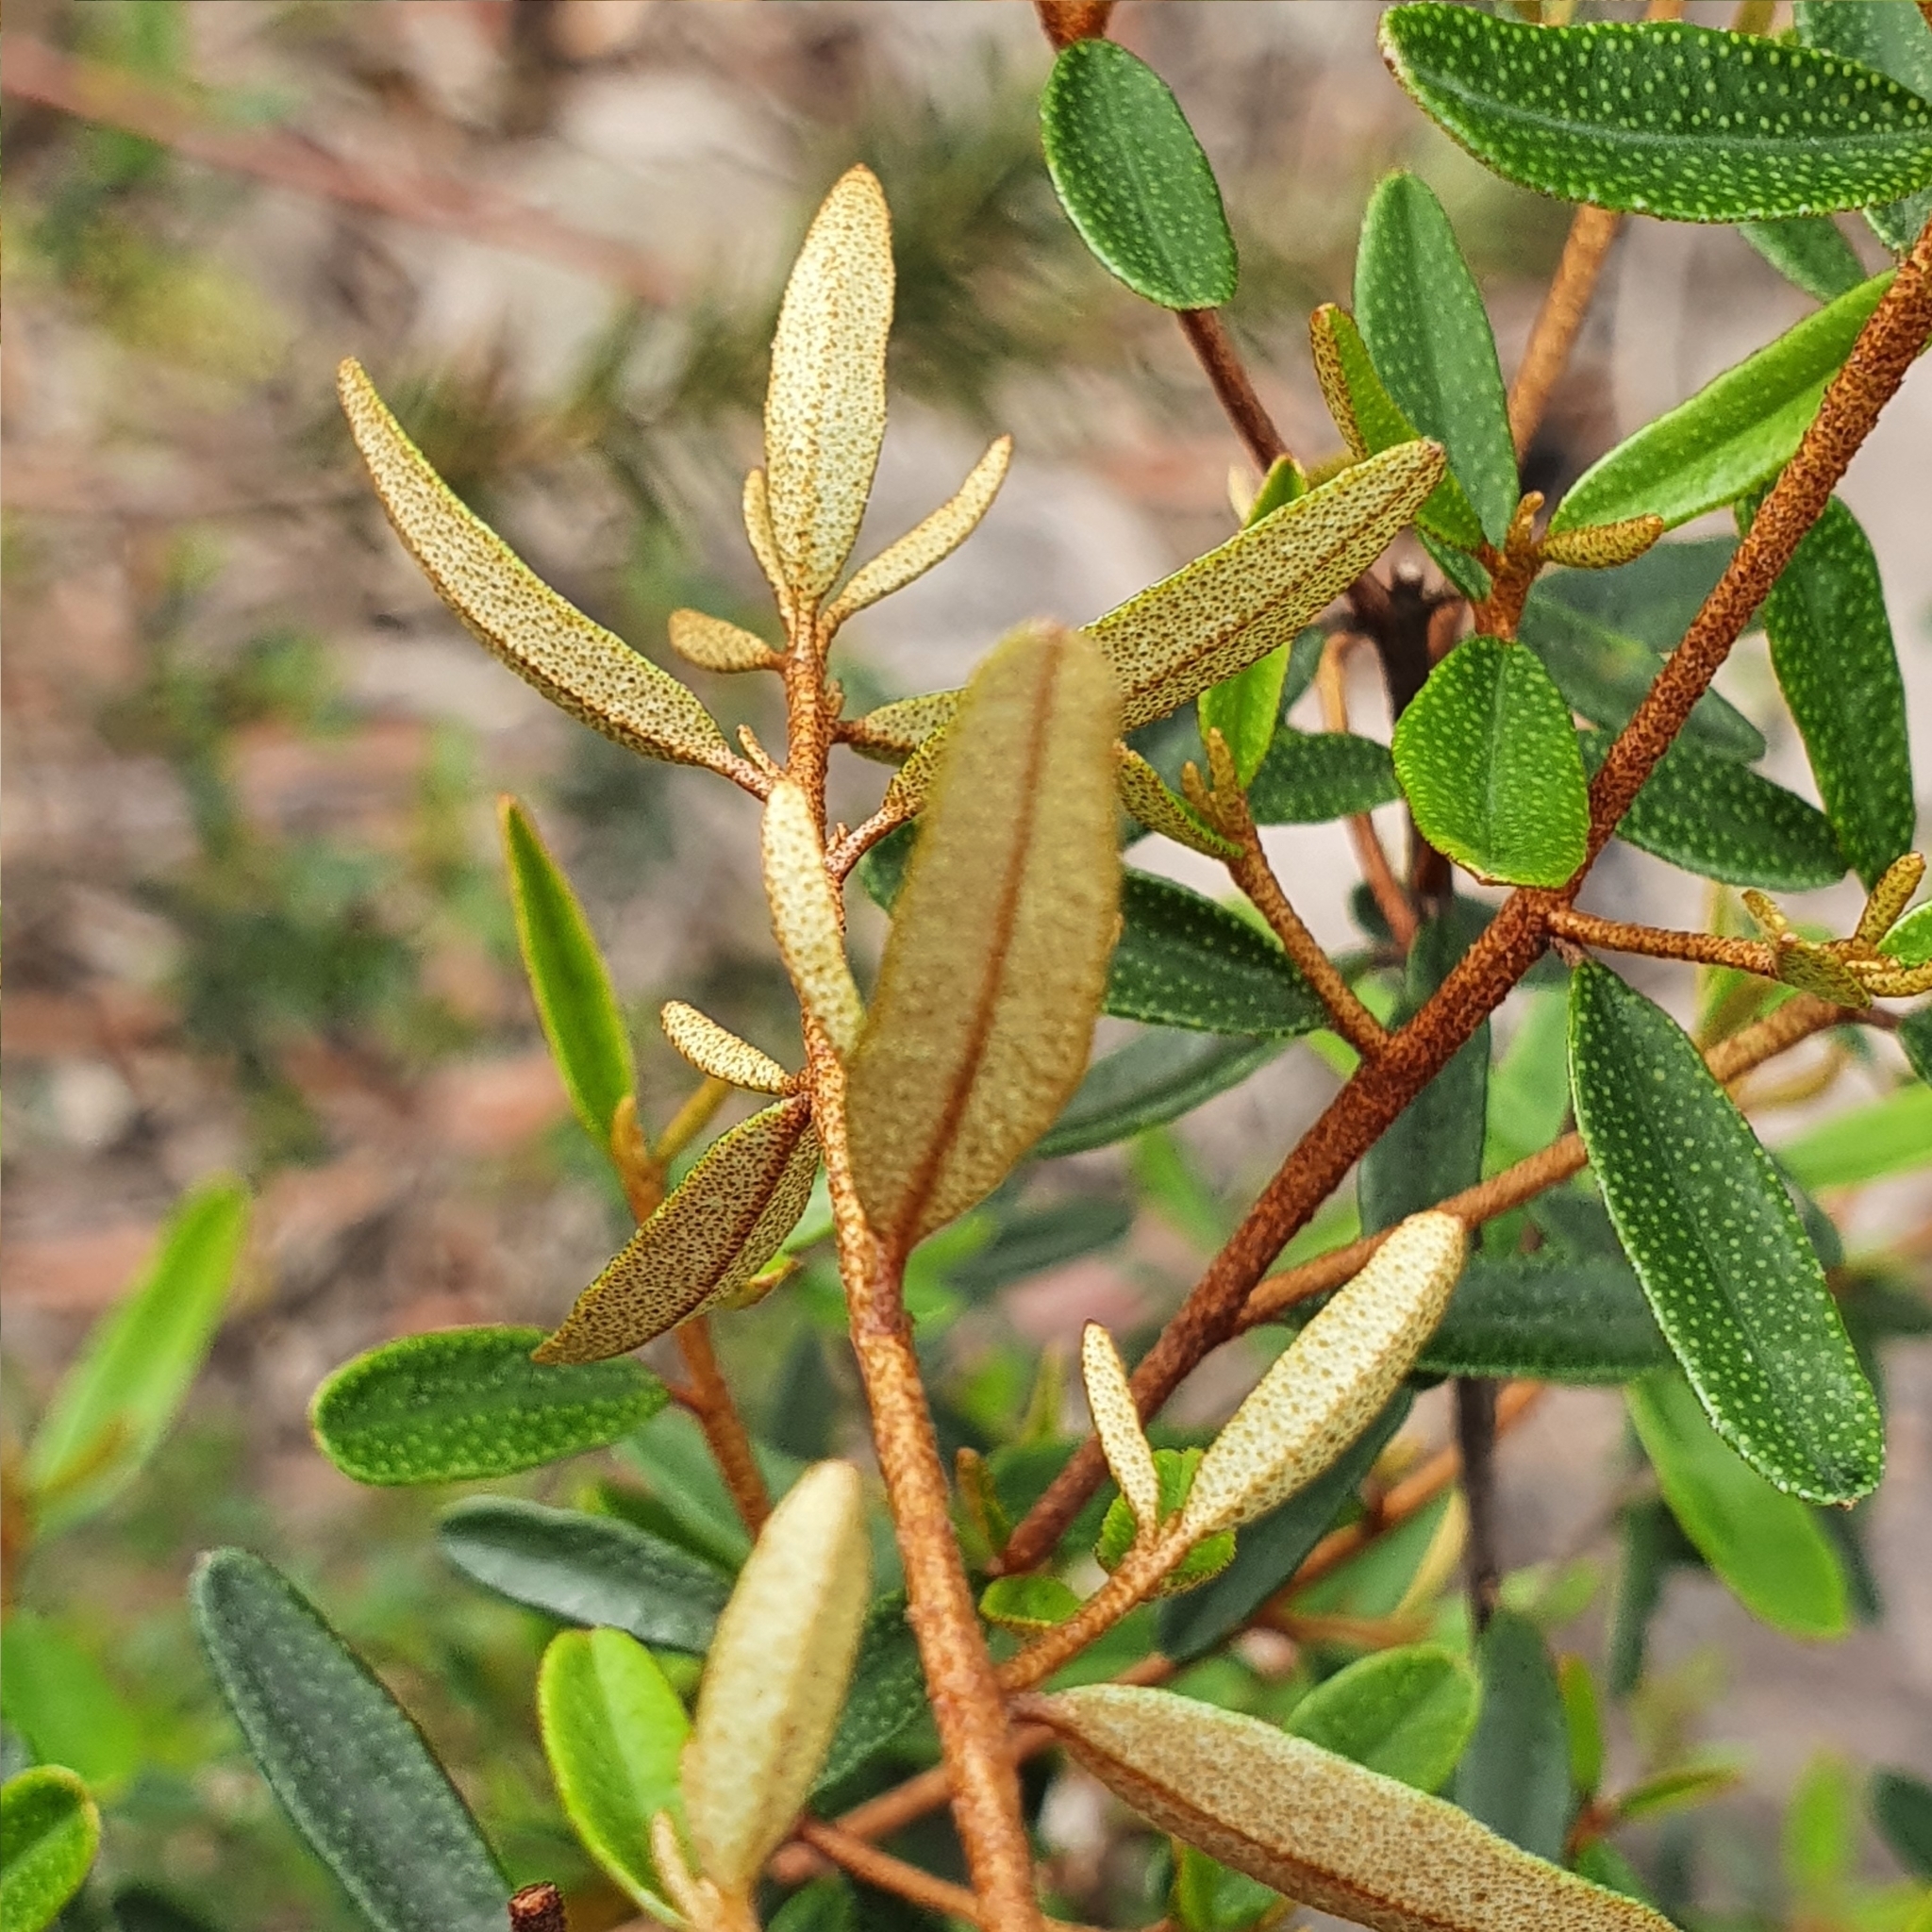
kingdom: Plantae
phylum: Tracheophyta
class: Magnoliopsida
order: Sapindales
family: Rutaceae
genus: Phebalium
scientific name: Phebalium squamulosum
